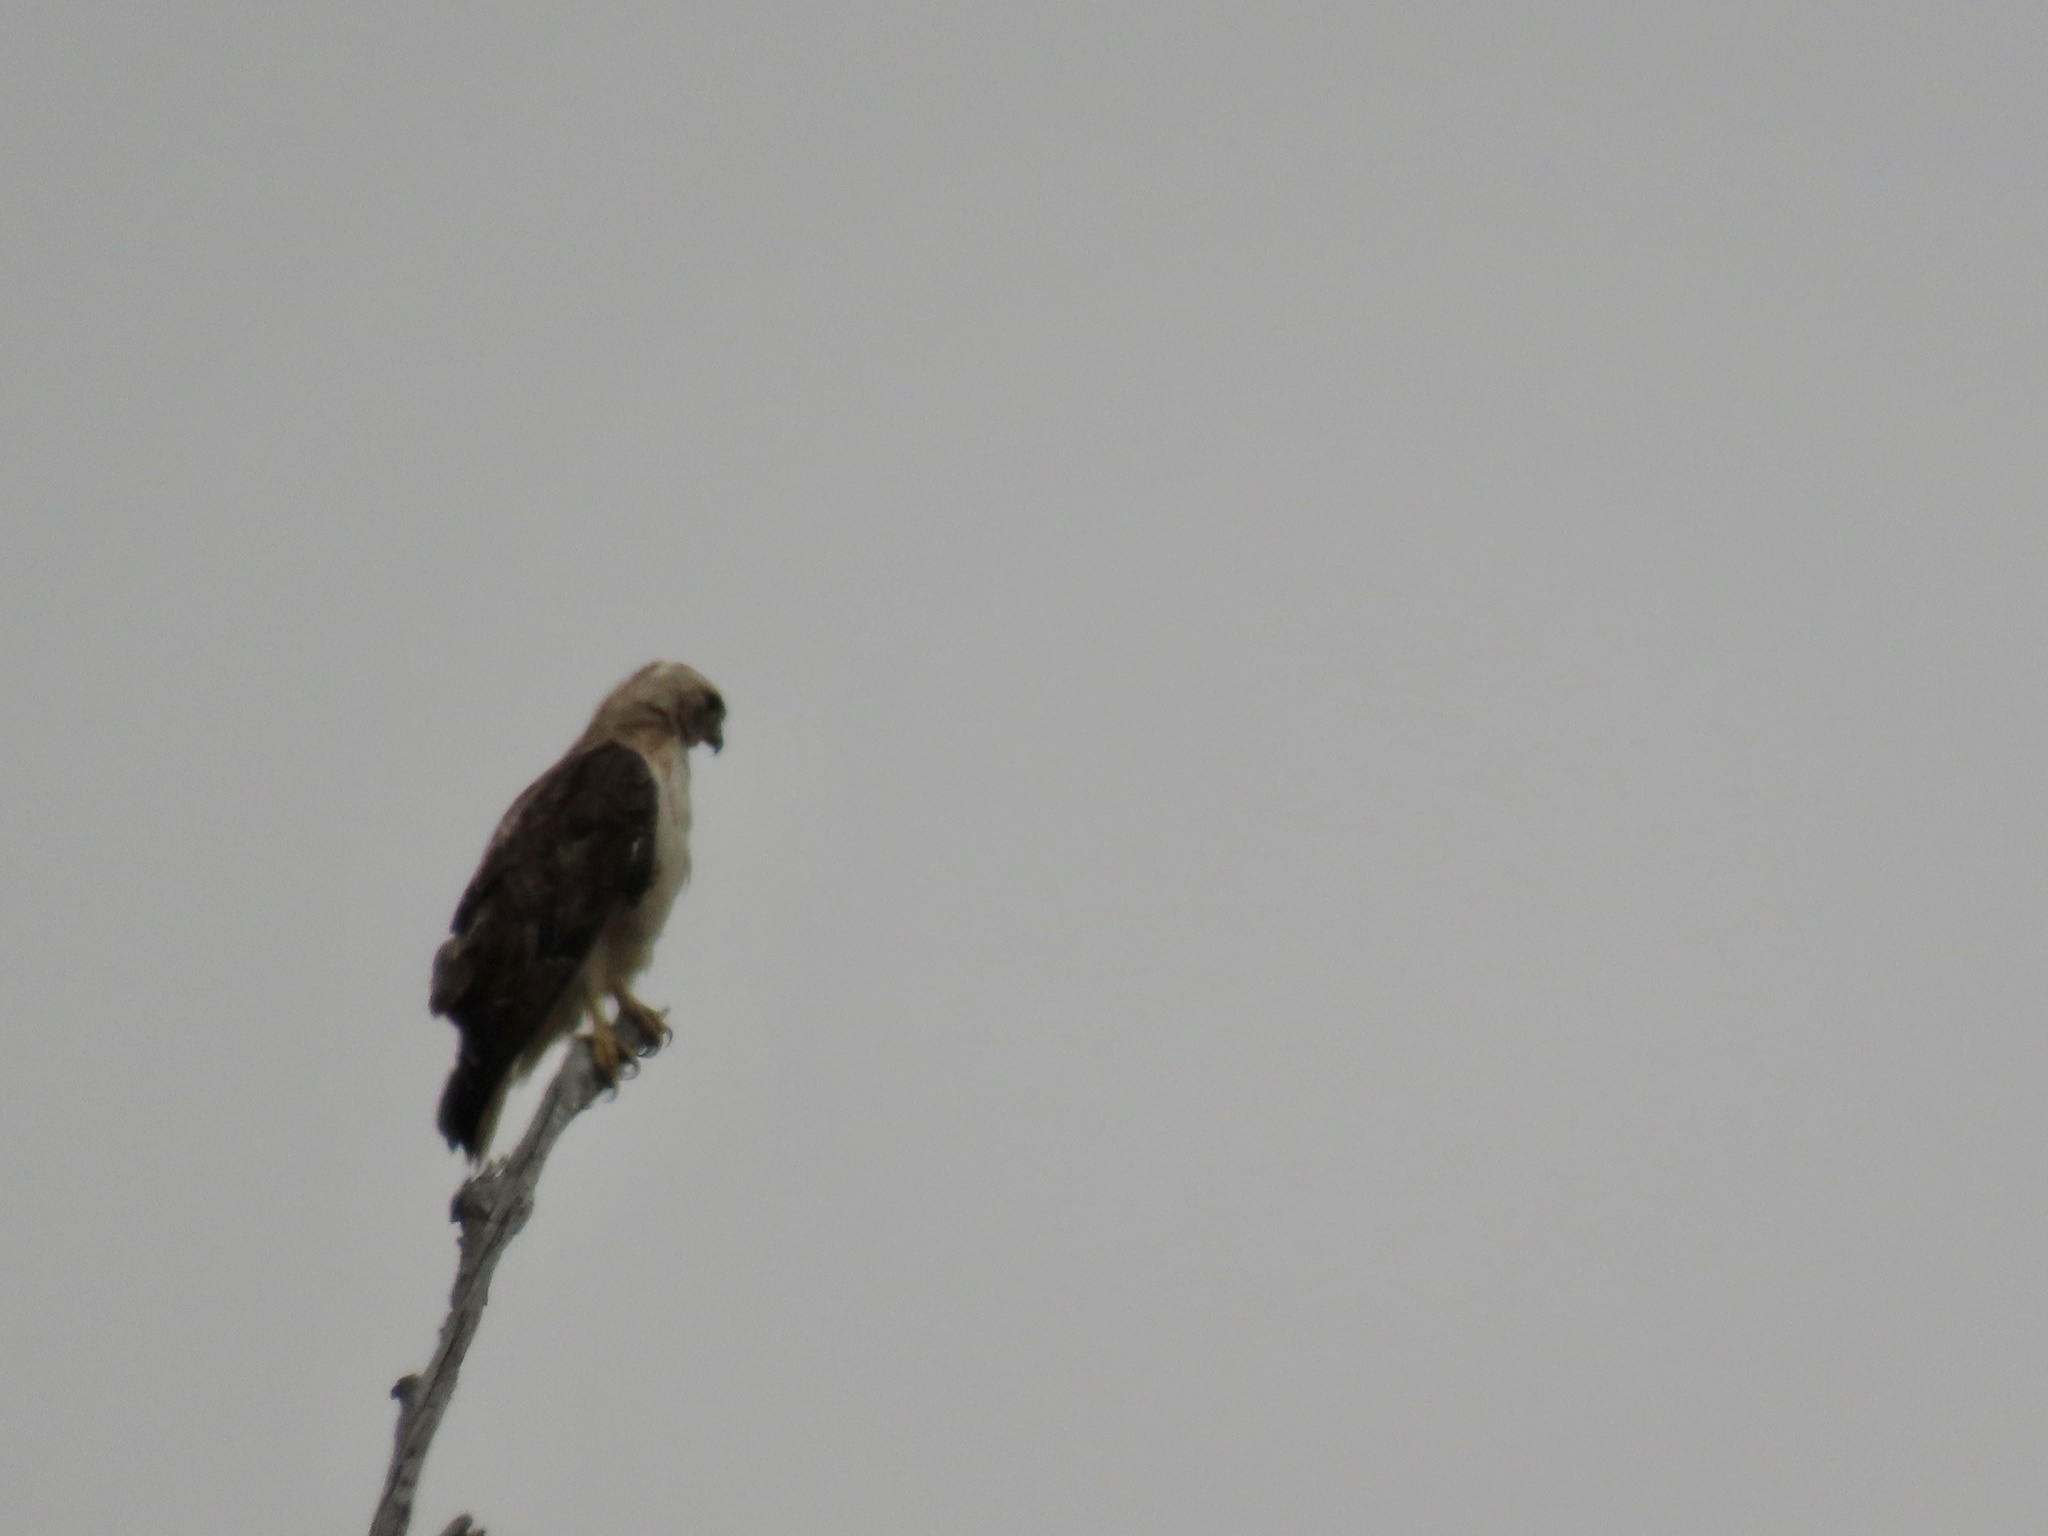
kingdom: Animalia
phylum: Chordata
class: Aves
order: Accipitriformes
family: Accipitridae
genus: Buteo
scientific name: Buteo jamaicensis
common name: Red-tailed hawk
